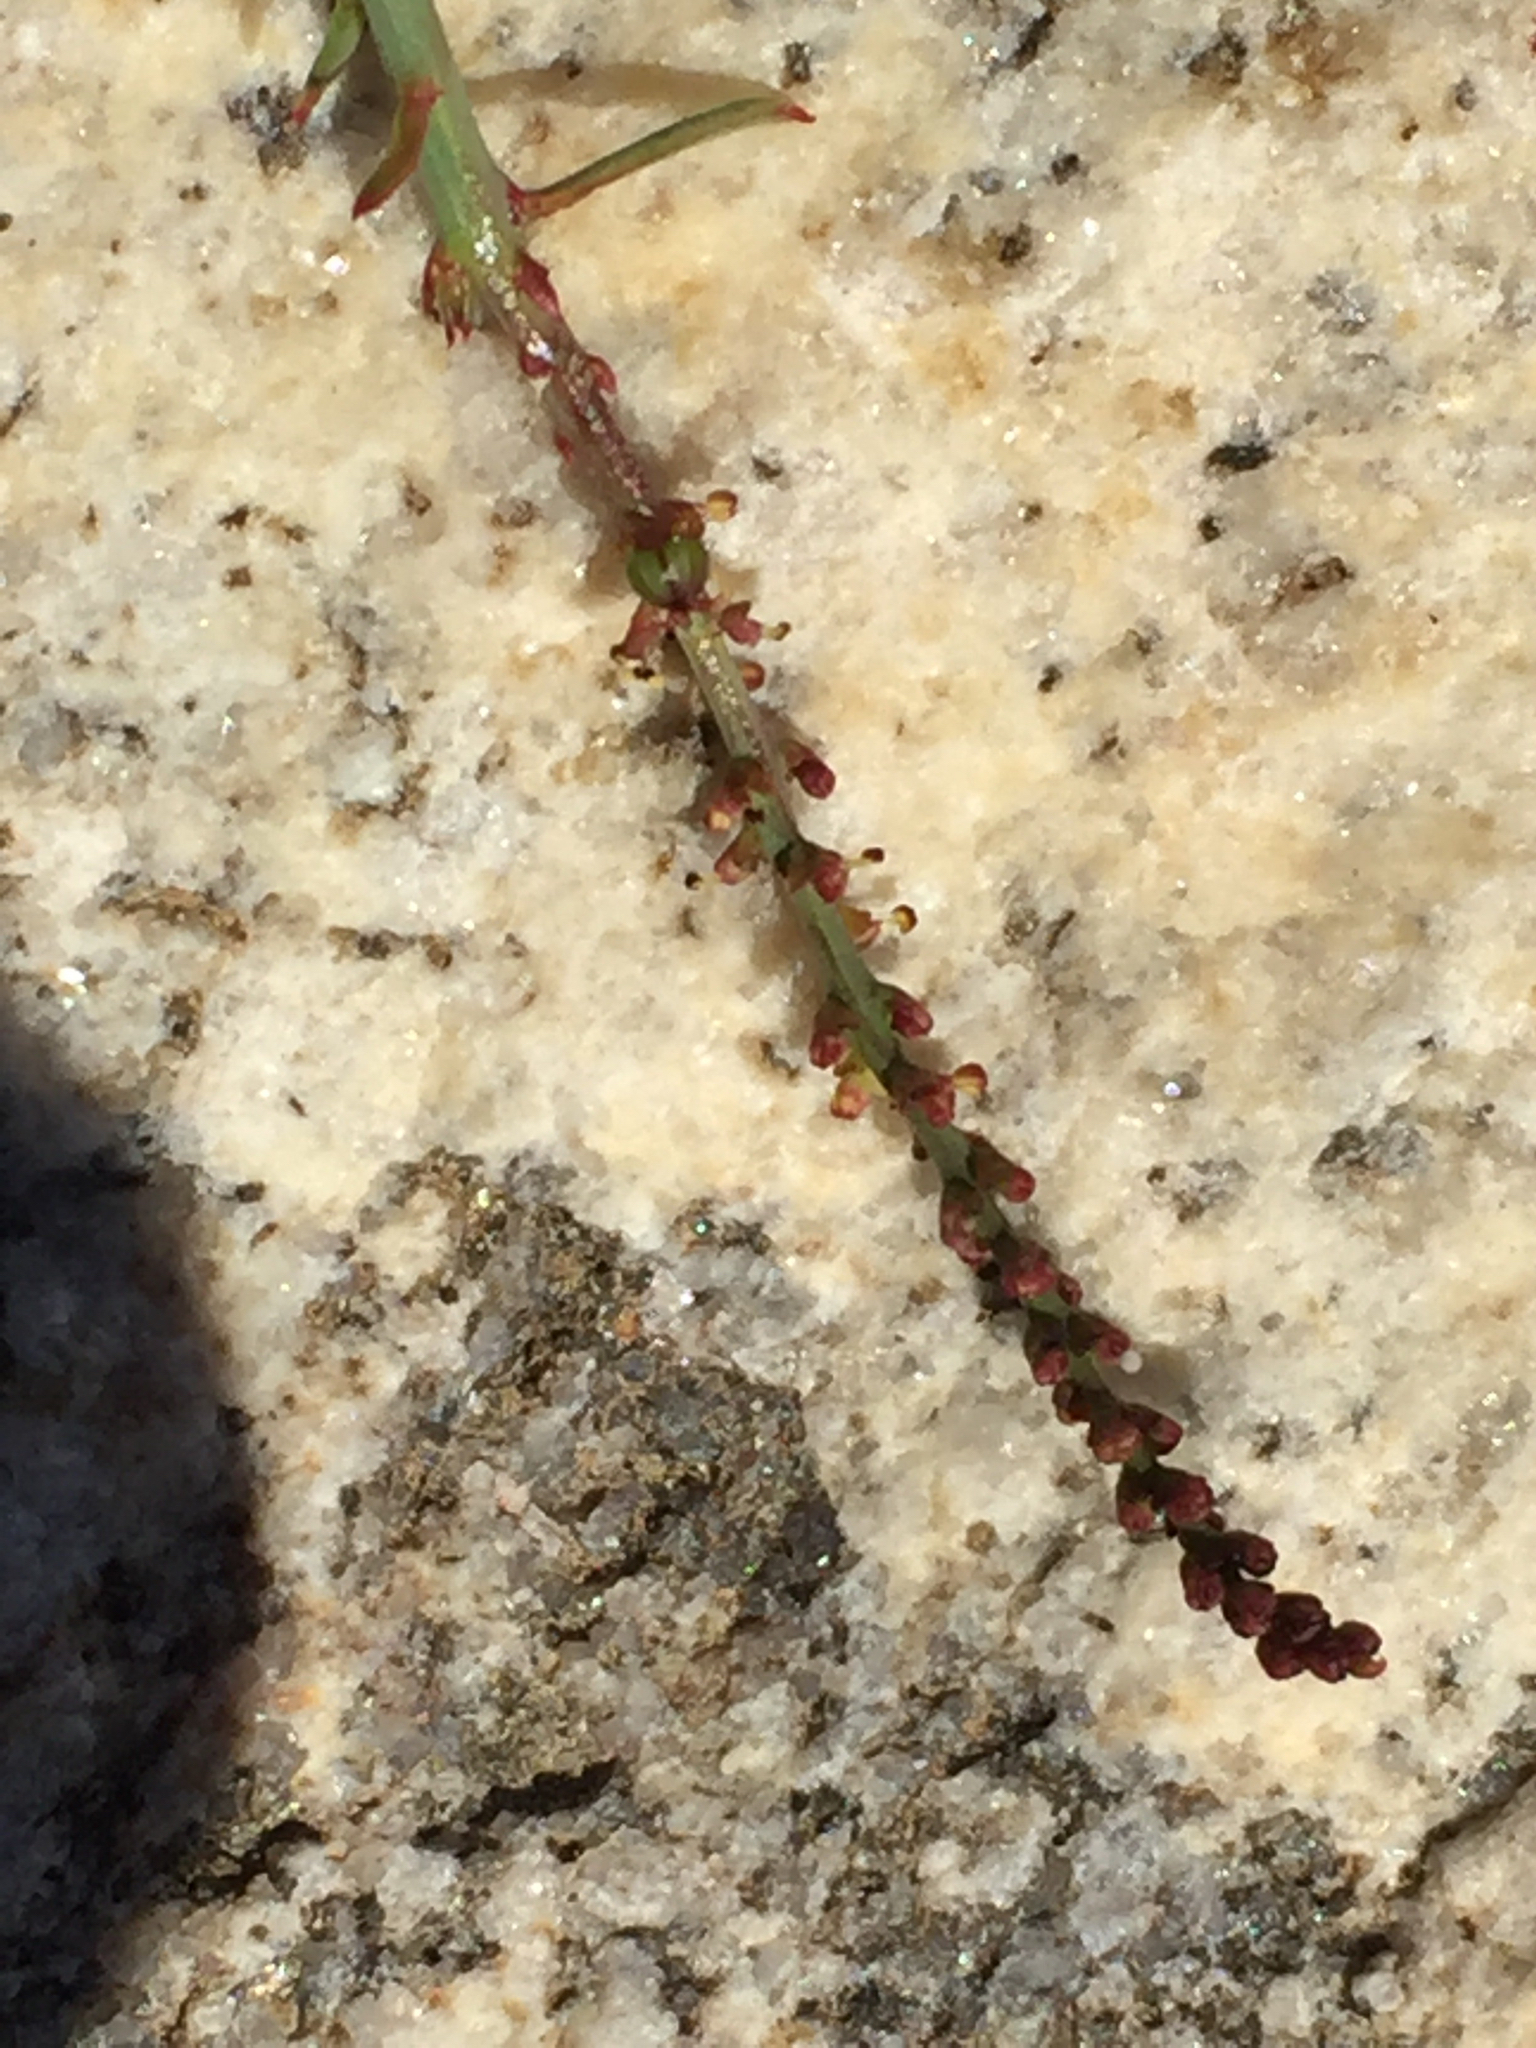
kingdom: Plantae
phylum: Tracheophyta
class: Magnoliopsida
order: Malpighiales
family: Euphorbiaceae
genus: Stillingia
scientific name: Stillingia linearifolia
